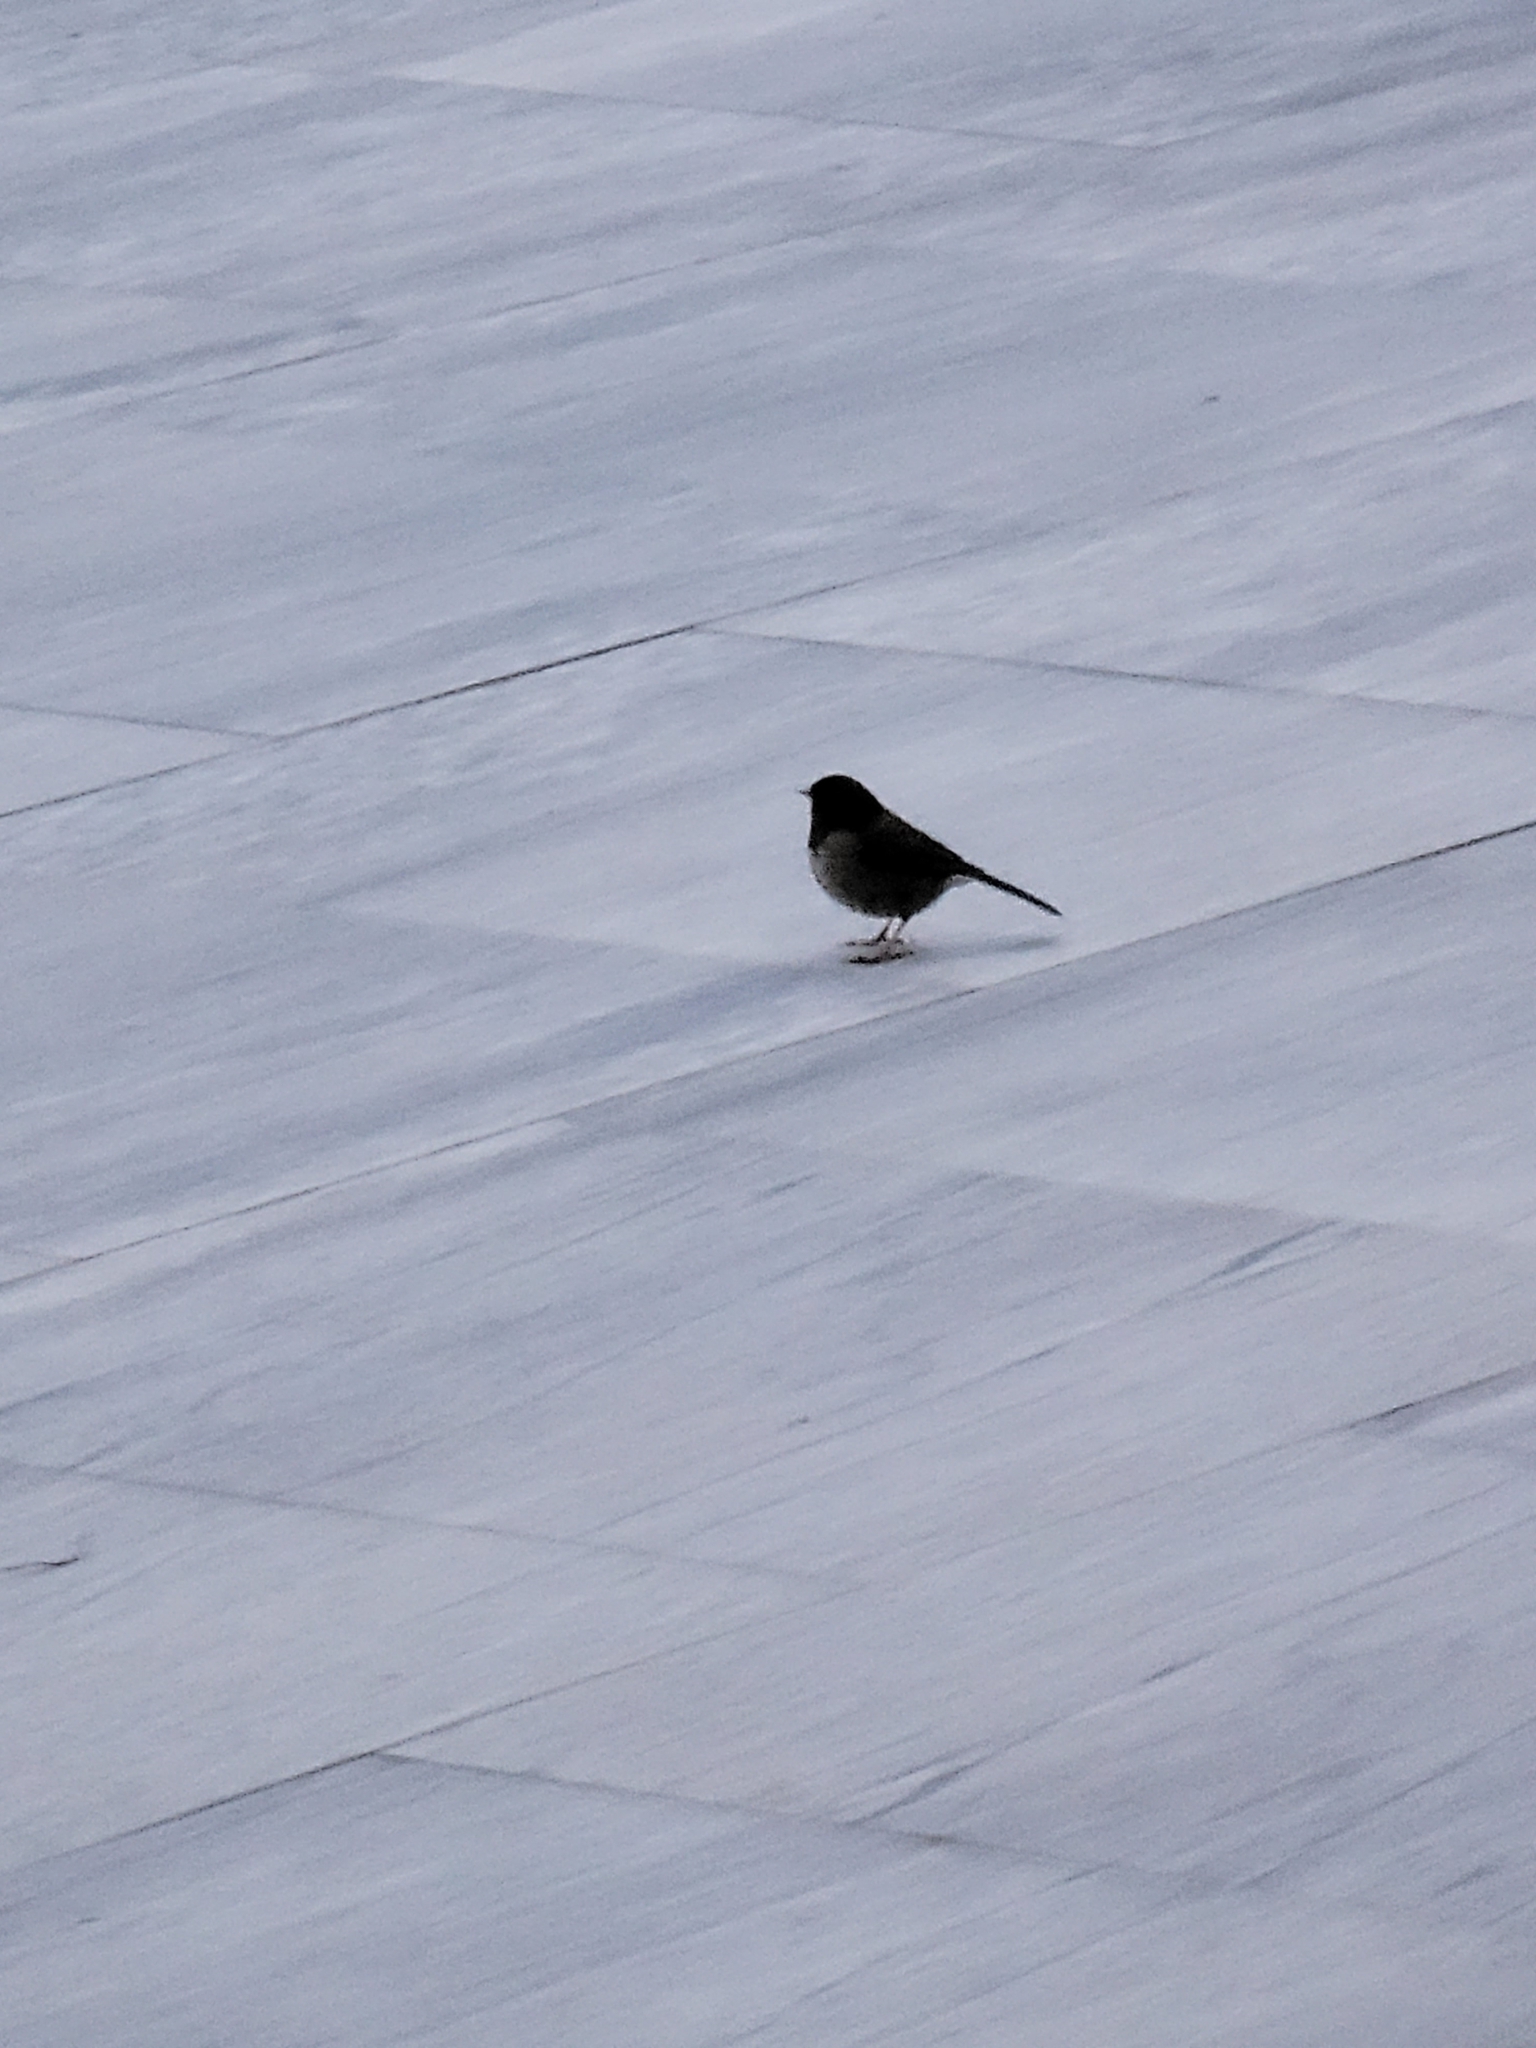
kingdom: Animalia
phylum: Chordata
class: Aves
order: Passeriformes
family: Passerellidae
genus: Junco
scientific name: Junco hyemalis
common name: Dark-eyed junco
